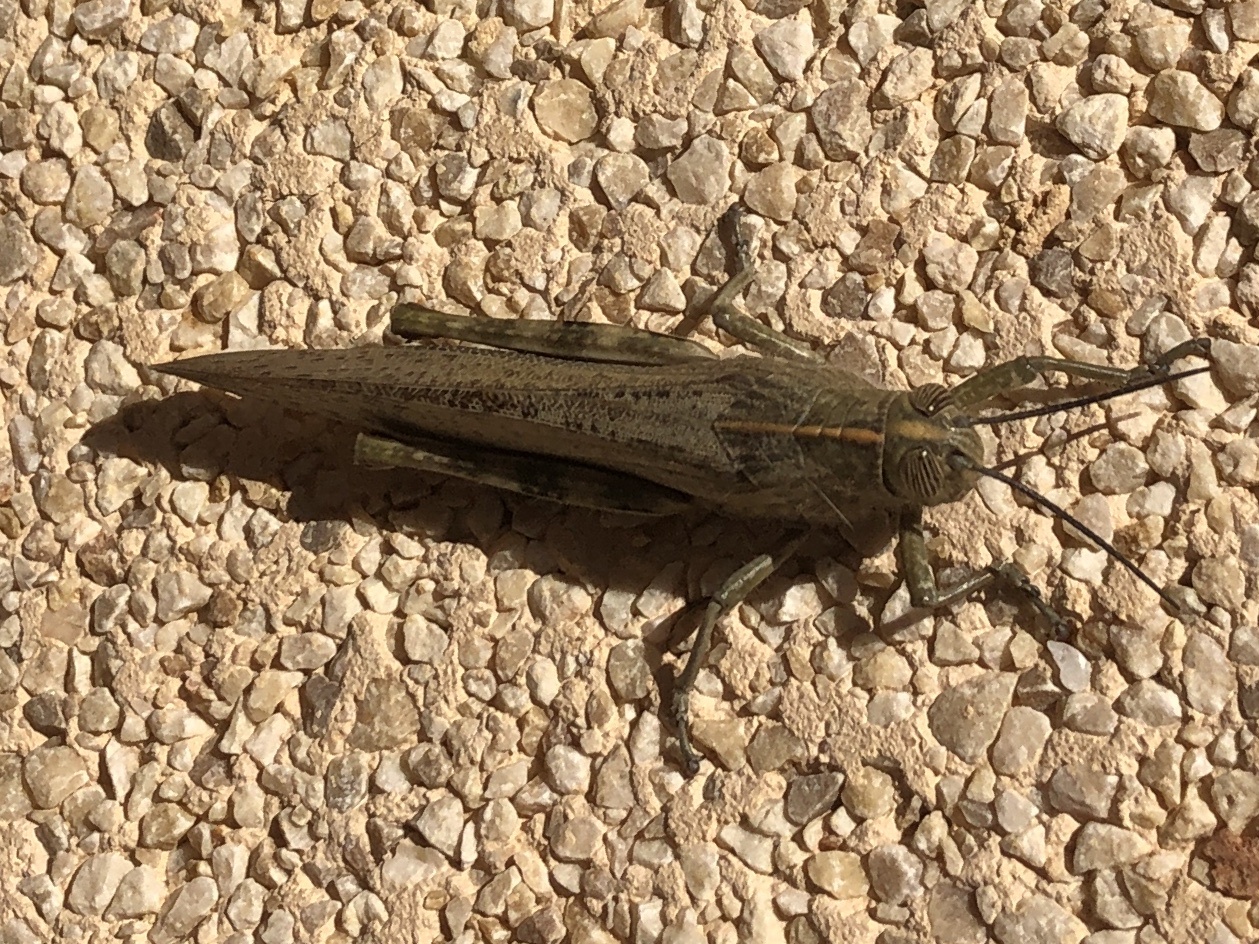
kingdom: Animalia
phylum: Arthropoda
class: Insecta
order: Orthoptera
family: Acrididae
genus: Anacridium
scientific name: Anacridium aegyptium
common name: Egyptian grasshopper
